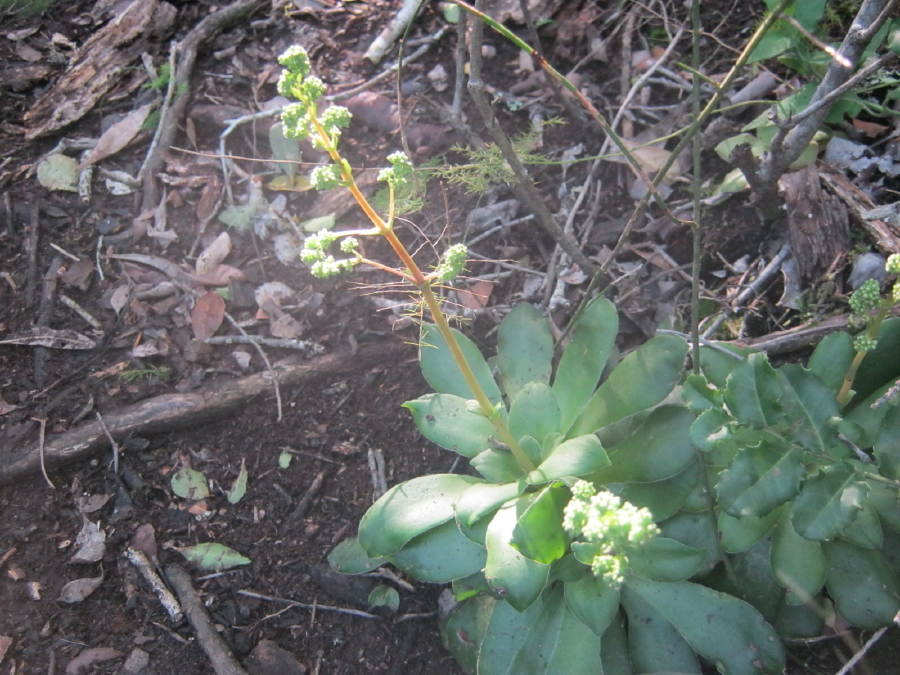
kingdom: Plantae
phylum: Tracheophyta
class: Magnoliopsida
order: Saxifragales
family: Crassulaceae
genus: Crassula
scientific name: Crassula orbicularis
